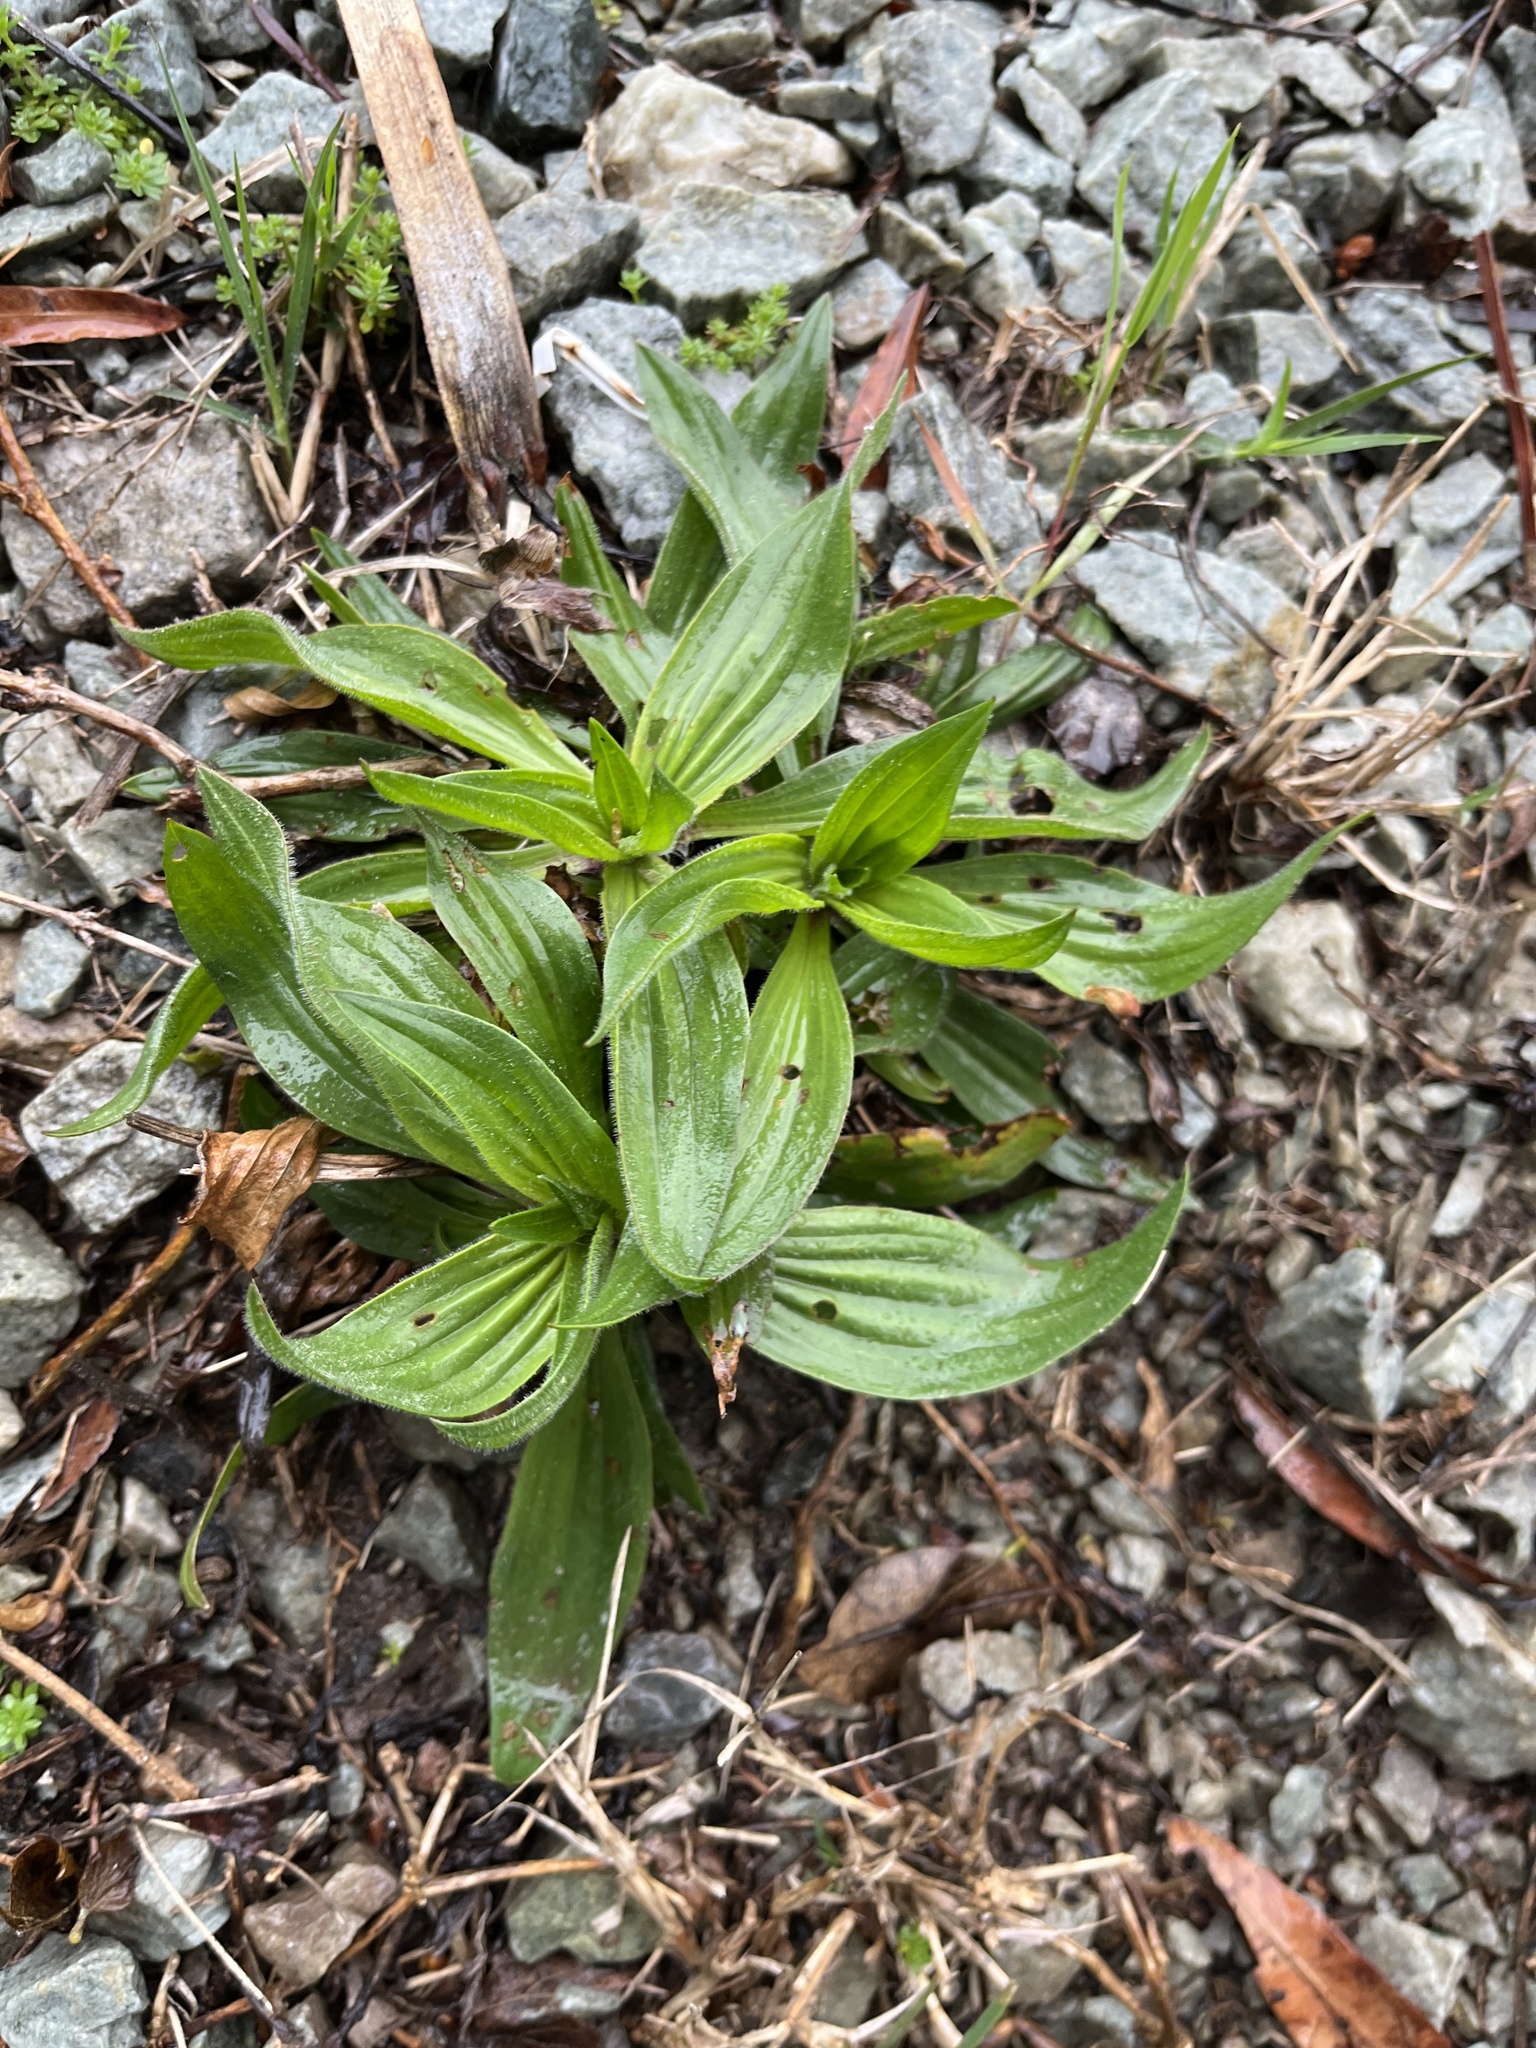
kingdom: Plantae
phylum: Tracheophyta
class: Magnoliopsida
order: Lamiales
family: Plantaginaceae
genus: Plantago
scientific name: Plantago lanceolata
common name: Ribwort plantain
